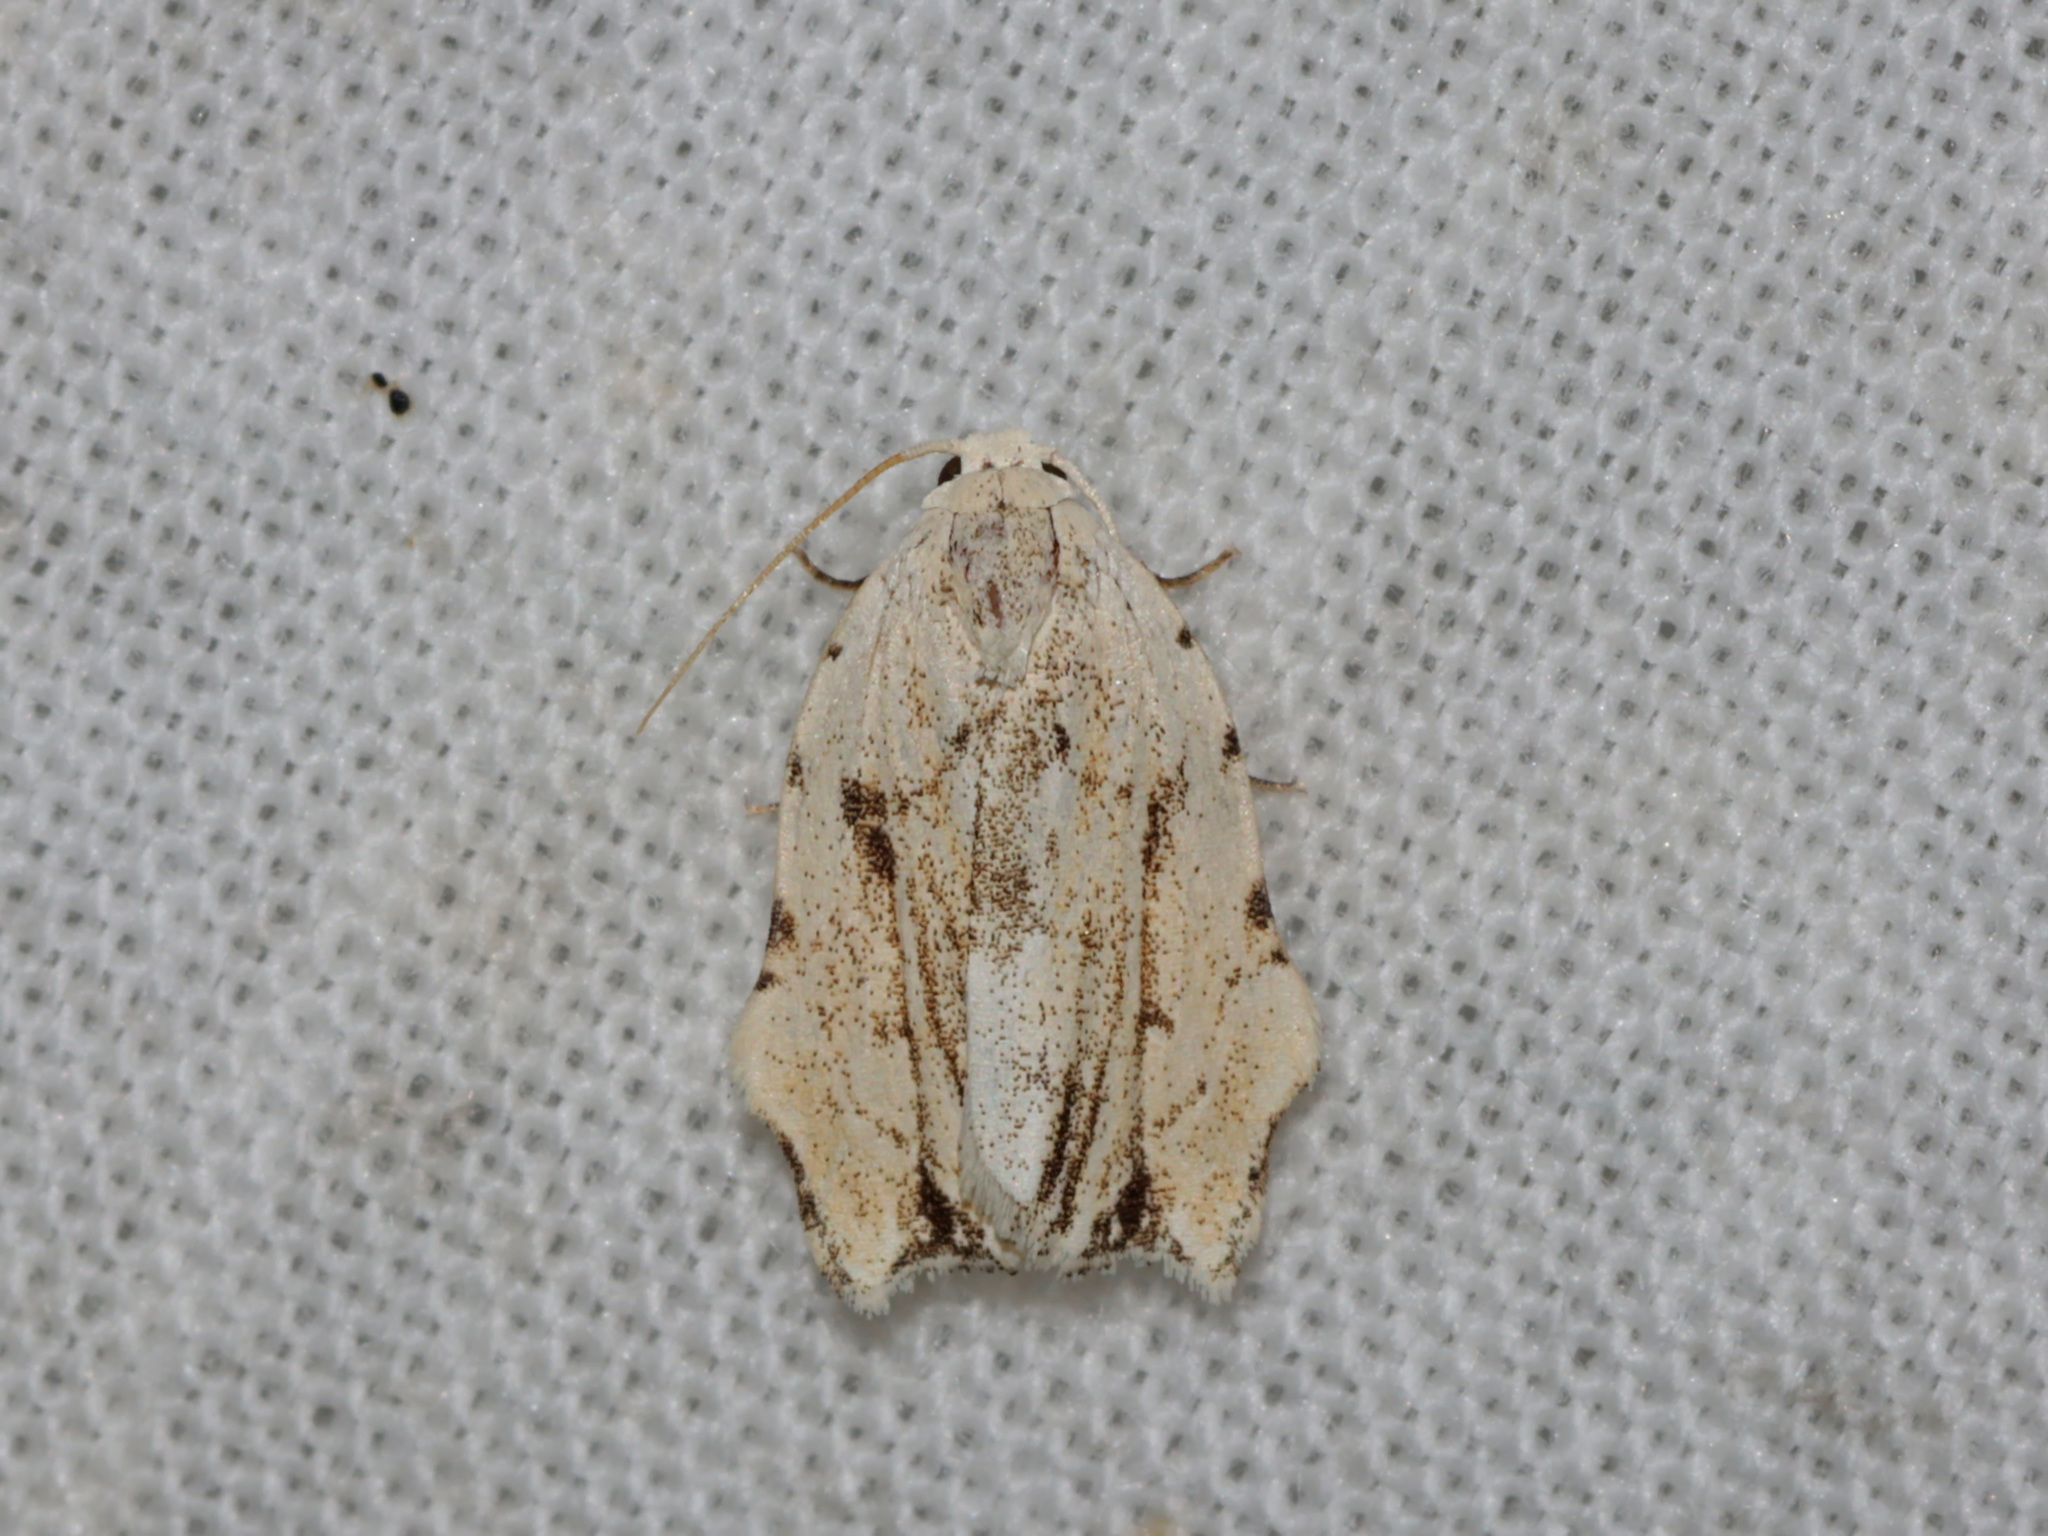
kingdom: Animalia
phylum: Arthropoda
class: Insecta
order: Lepidoptera
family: Erebidae
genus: Tortricosia
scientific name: Tortricosia classeyi
